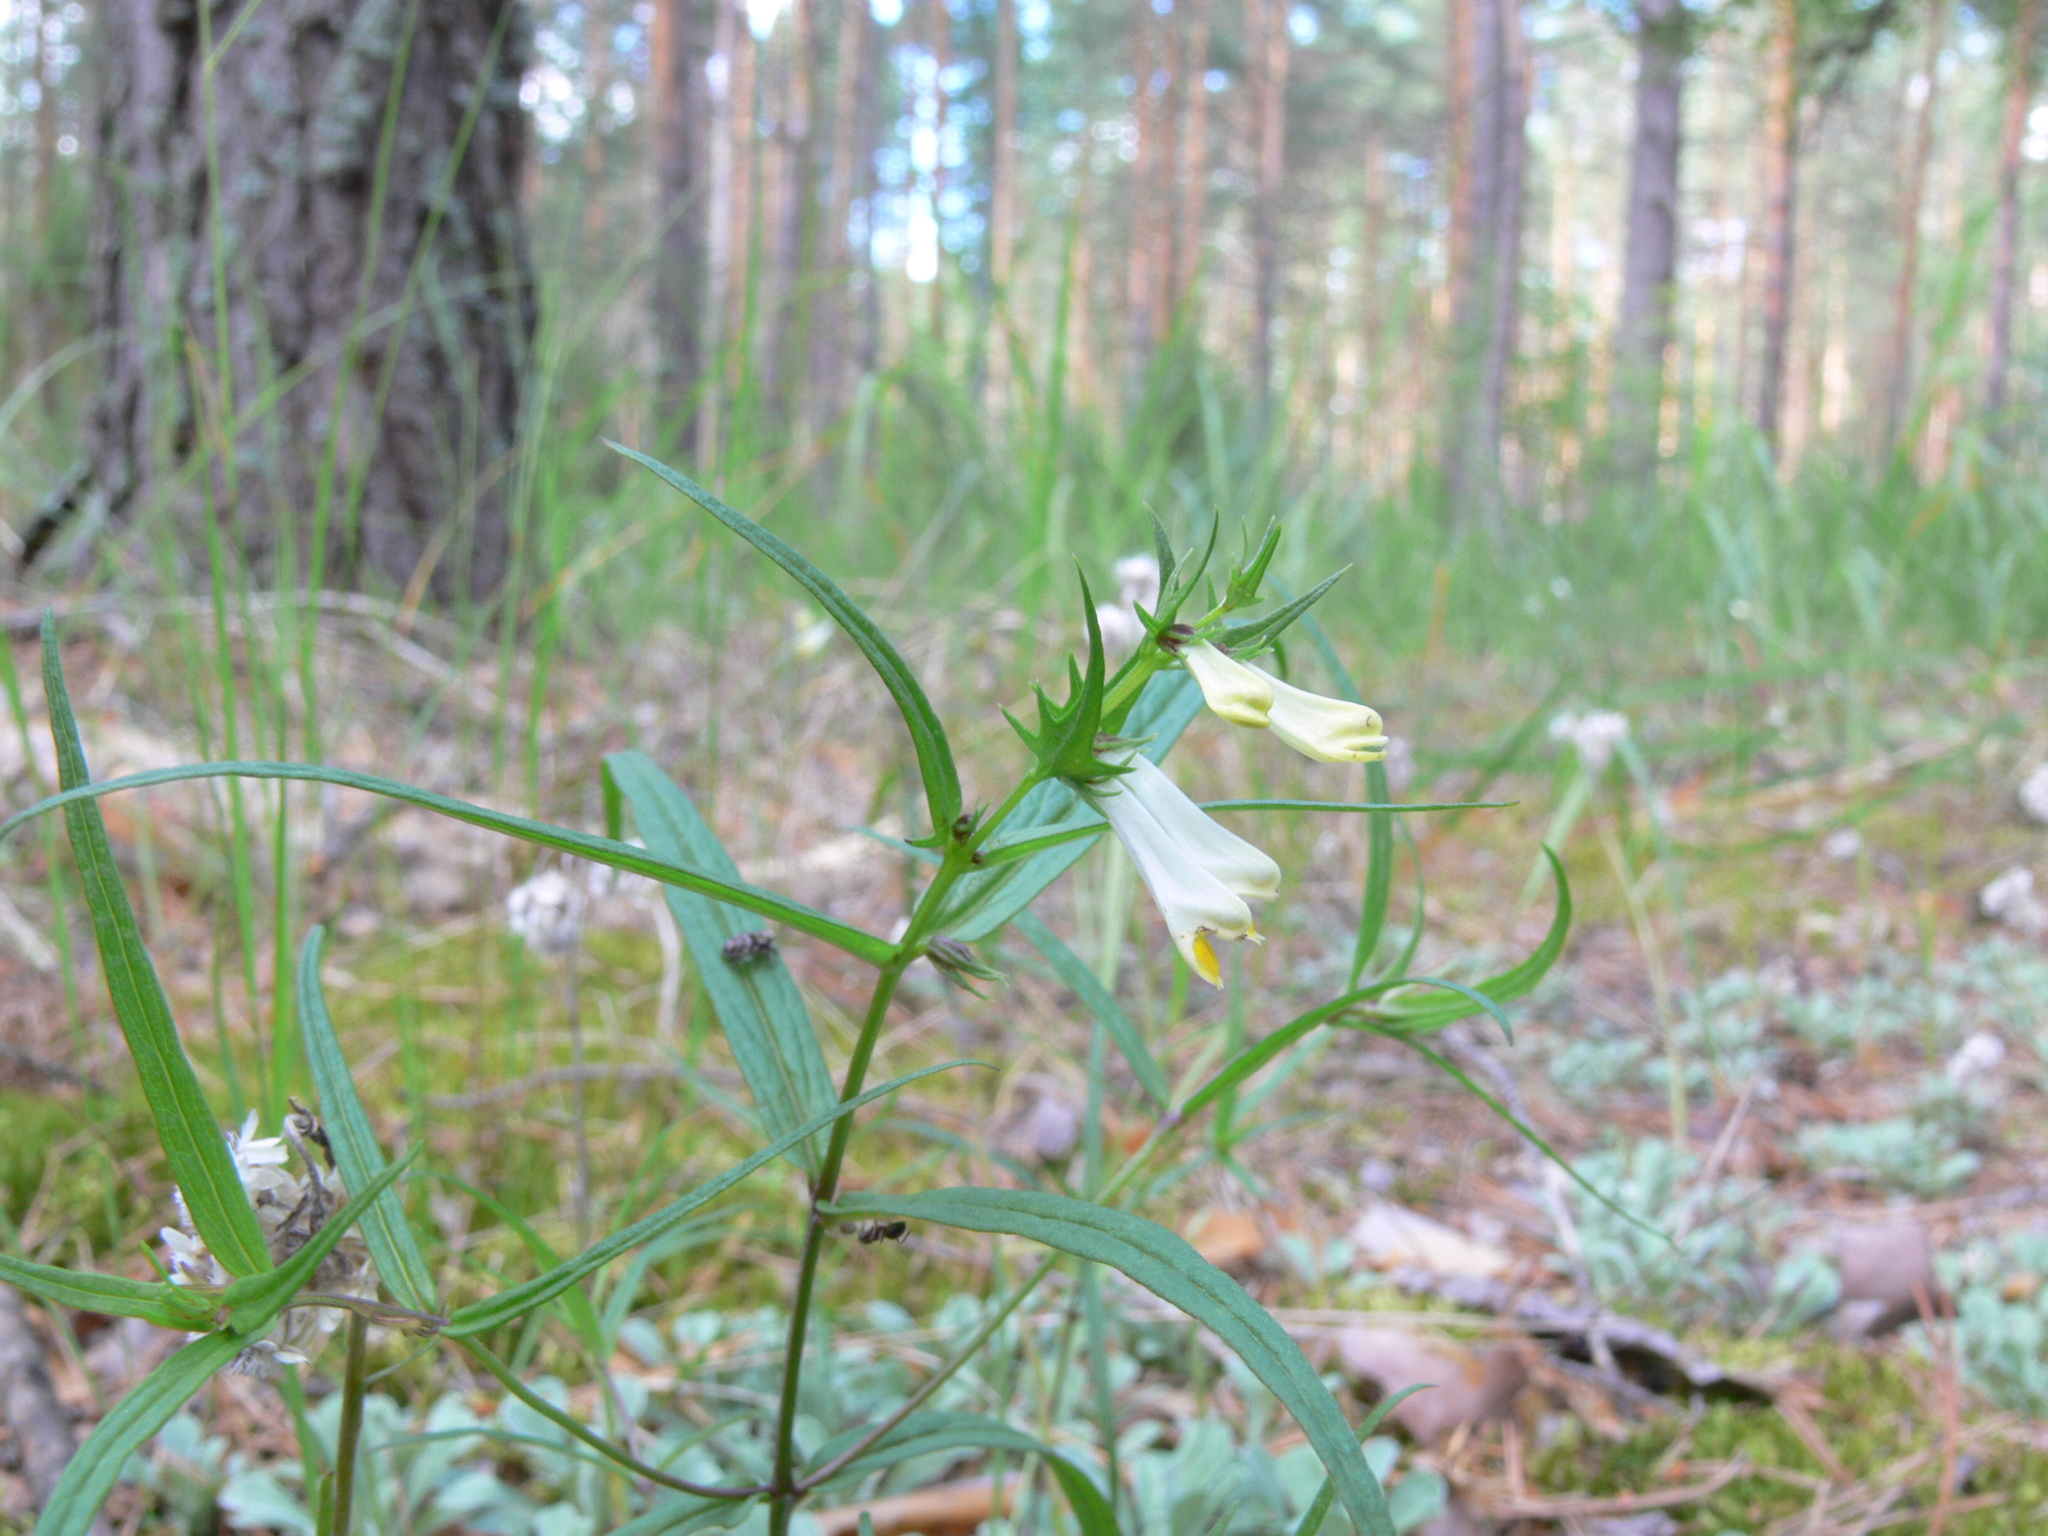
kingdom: Plantae
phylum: Tracheophyta
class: Magnoliopsida
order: Lamiales
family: Orobanchaceae
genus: Melampyrum
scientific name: Melampyrum pratense
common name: Common cow-wheat
